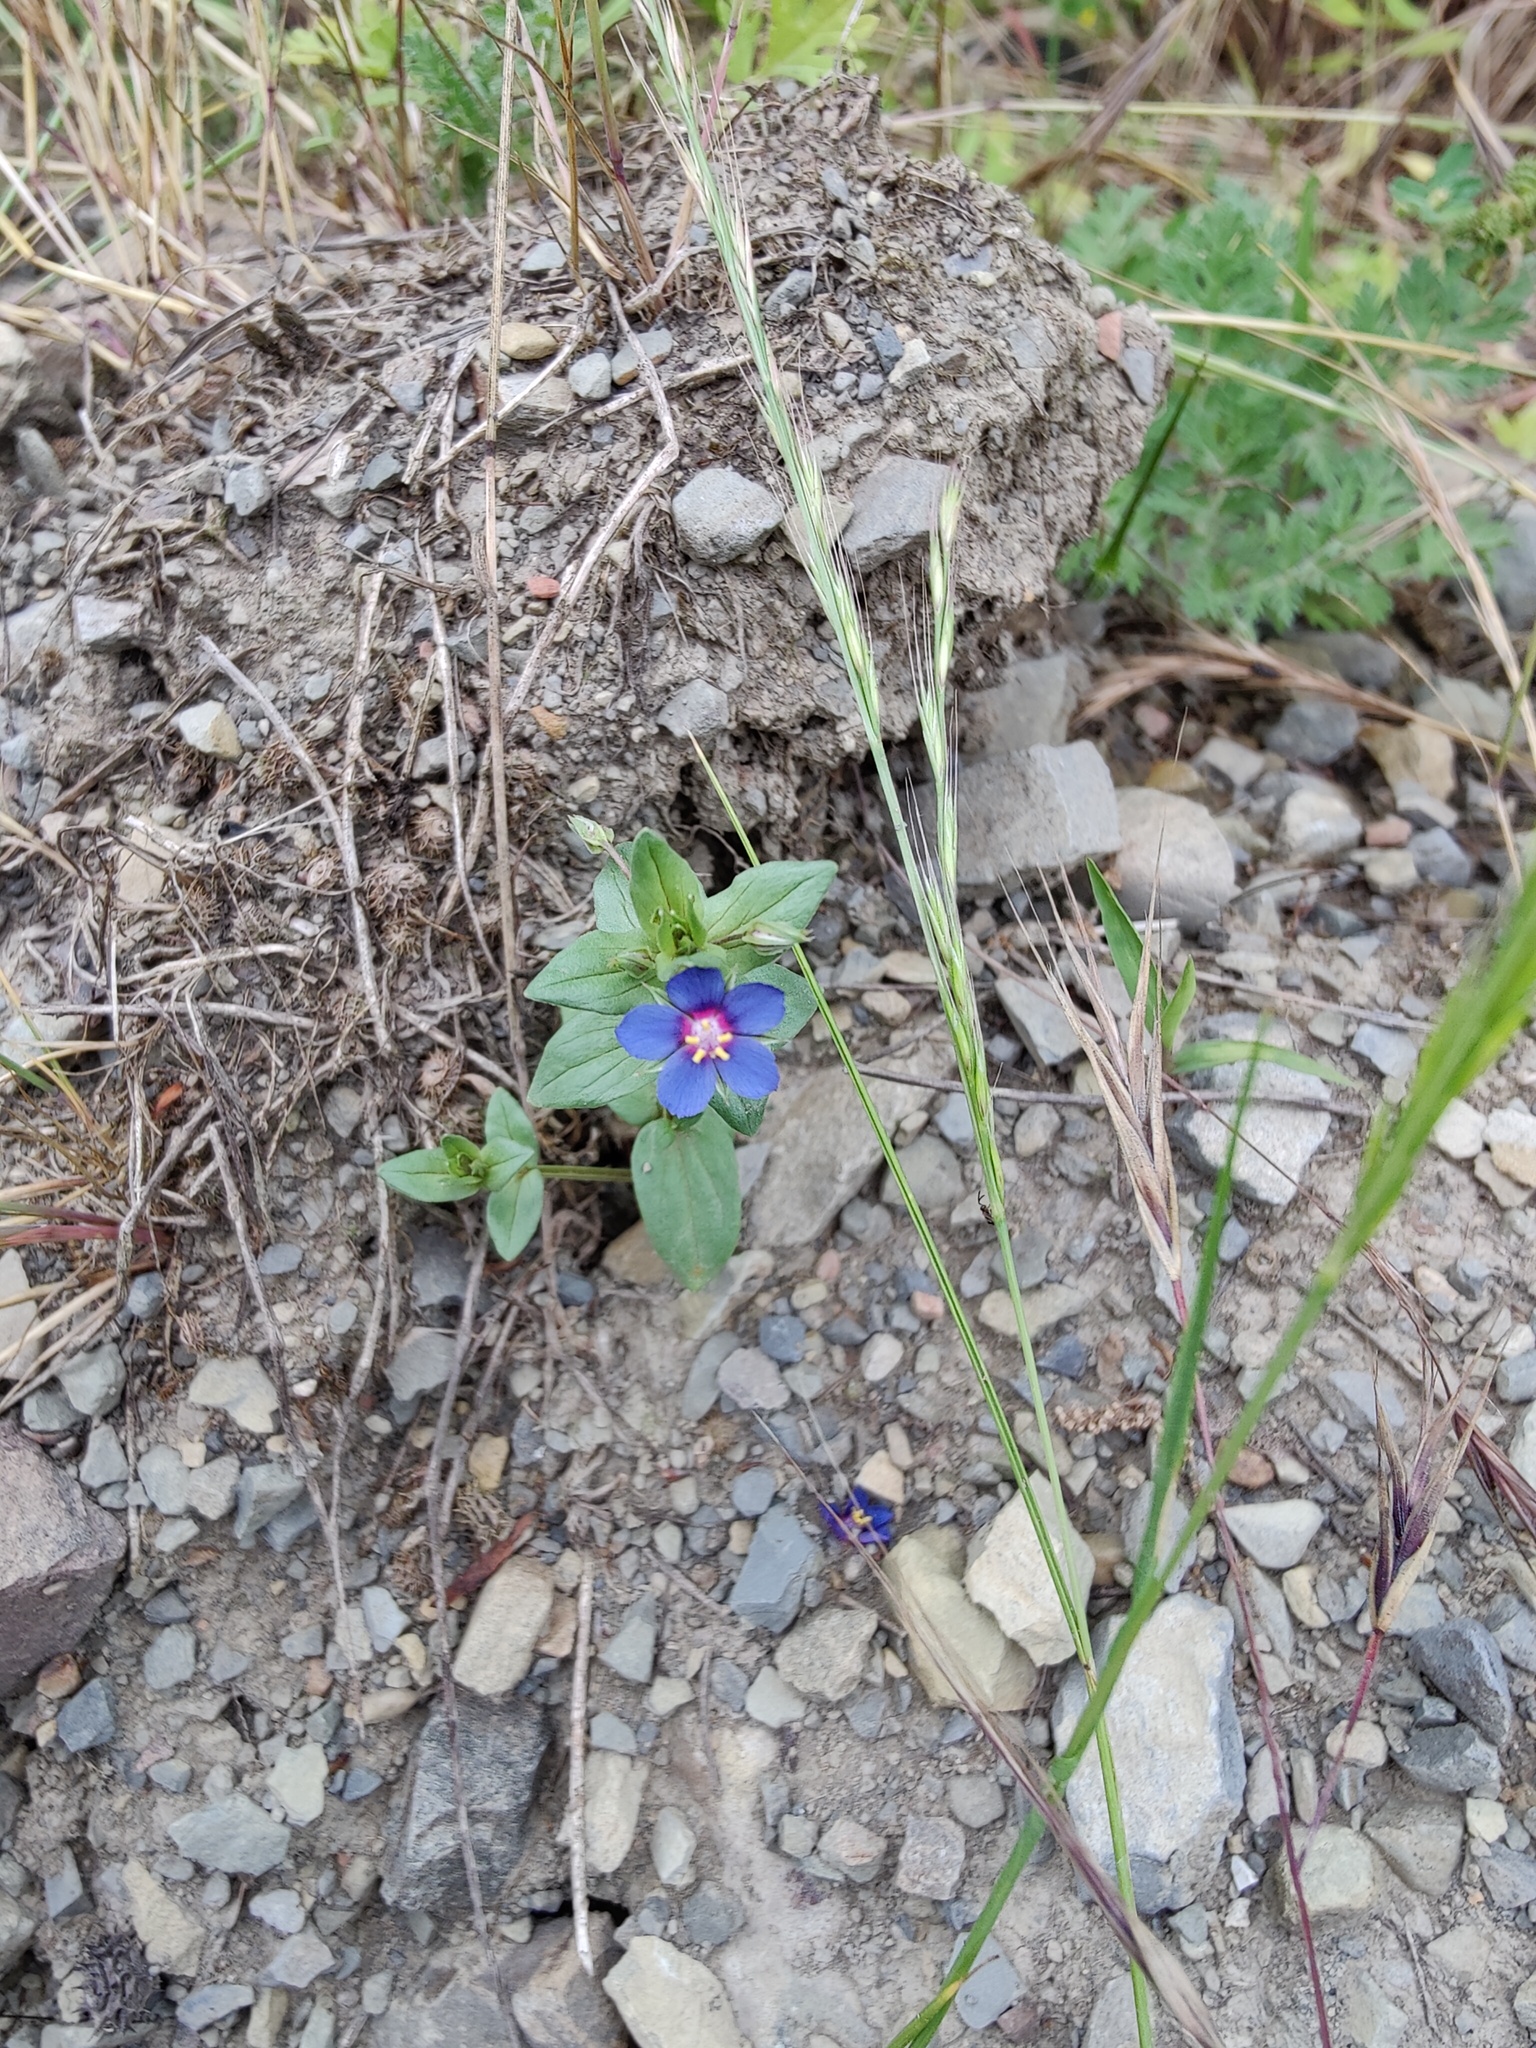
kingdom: Plantae
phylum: Tracheophyta
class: Magnoliopsida
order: Ericales
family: Primulaceae
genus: Lysimachia
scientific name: Lysimachia foemina
